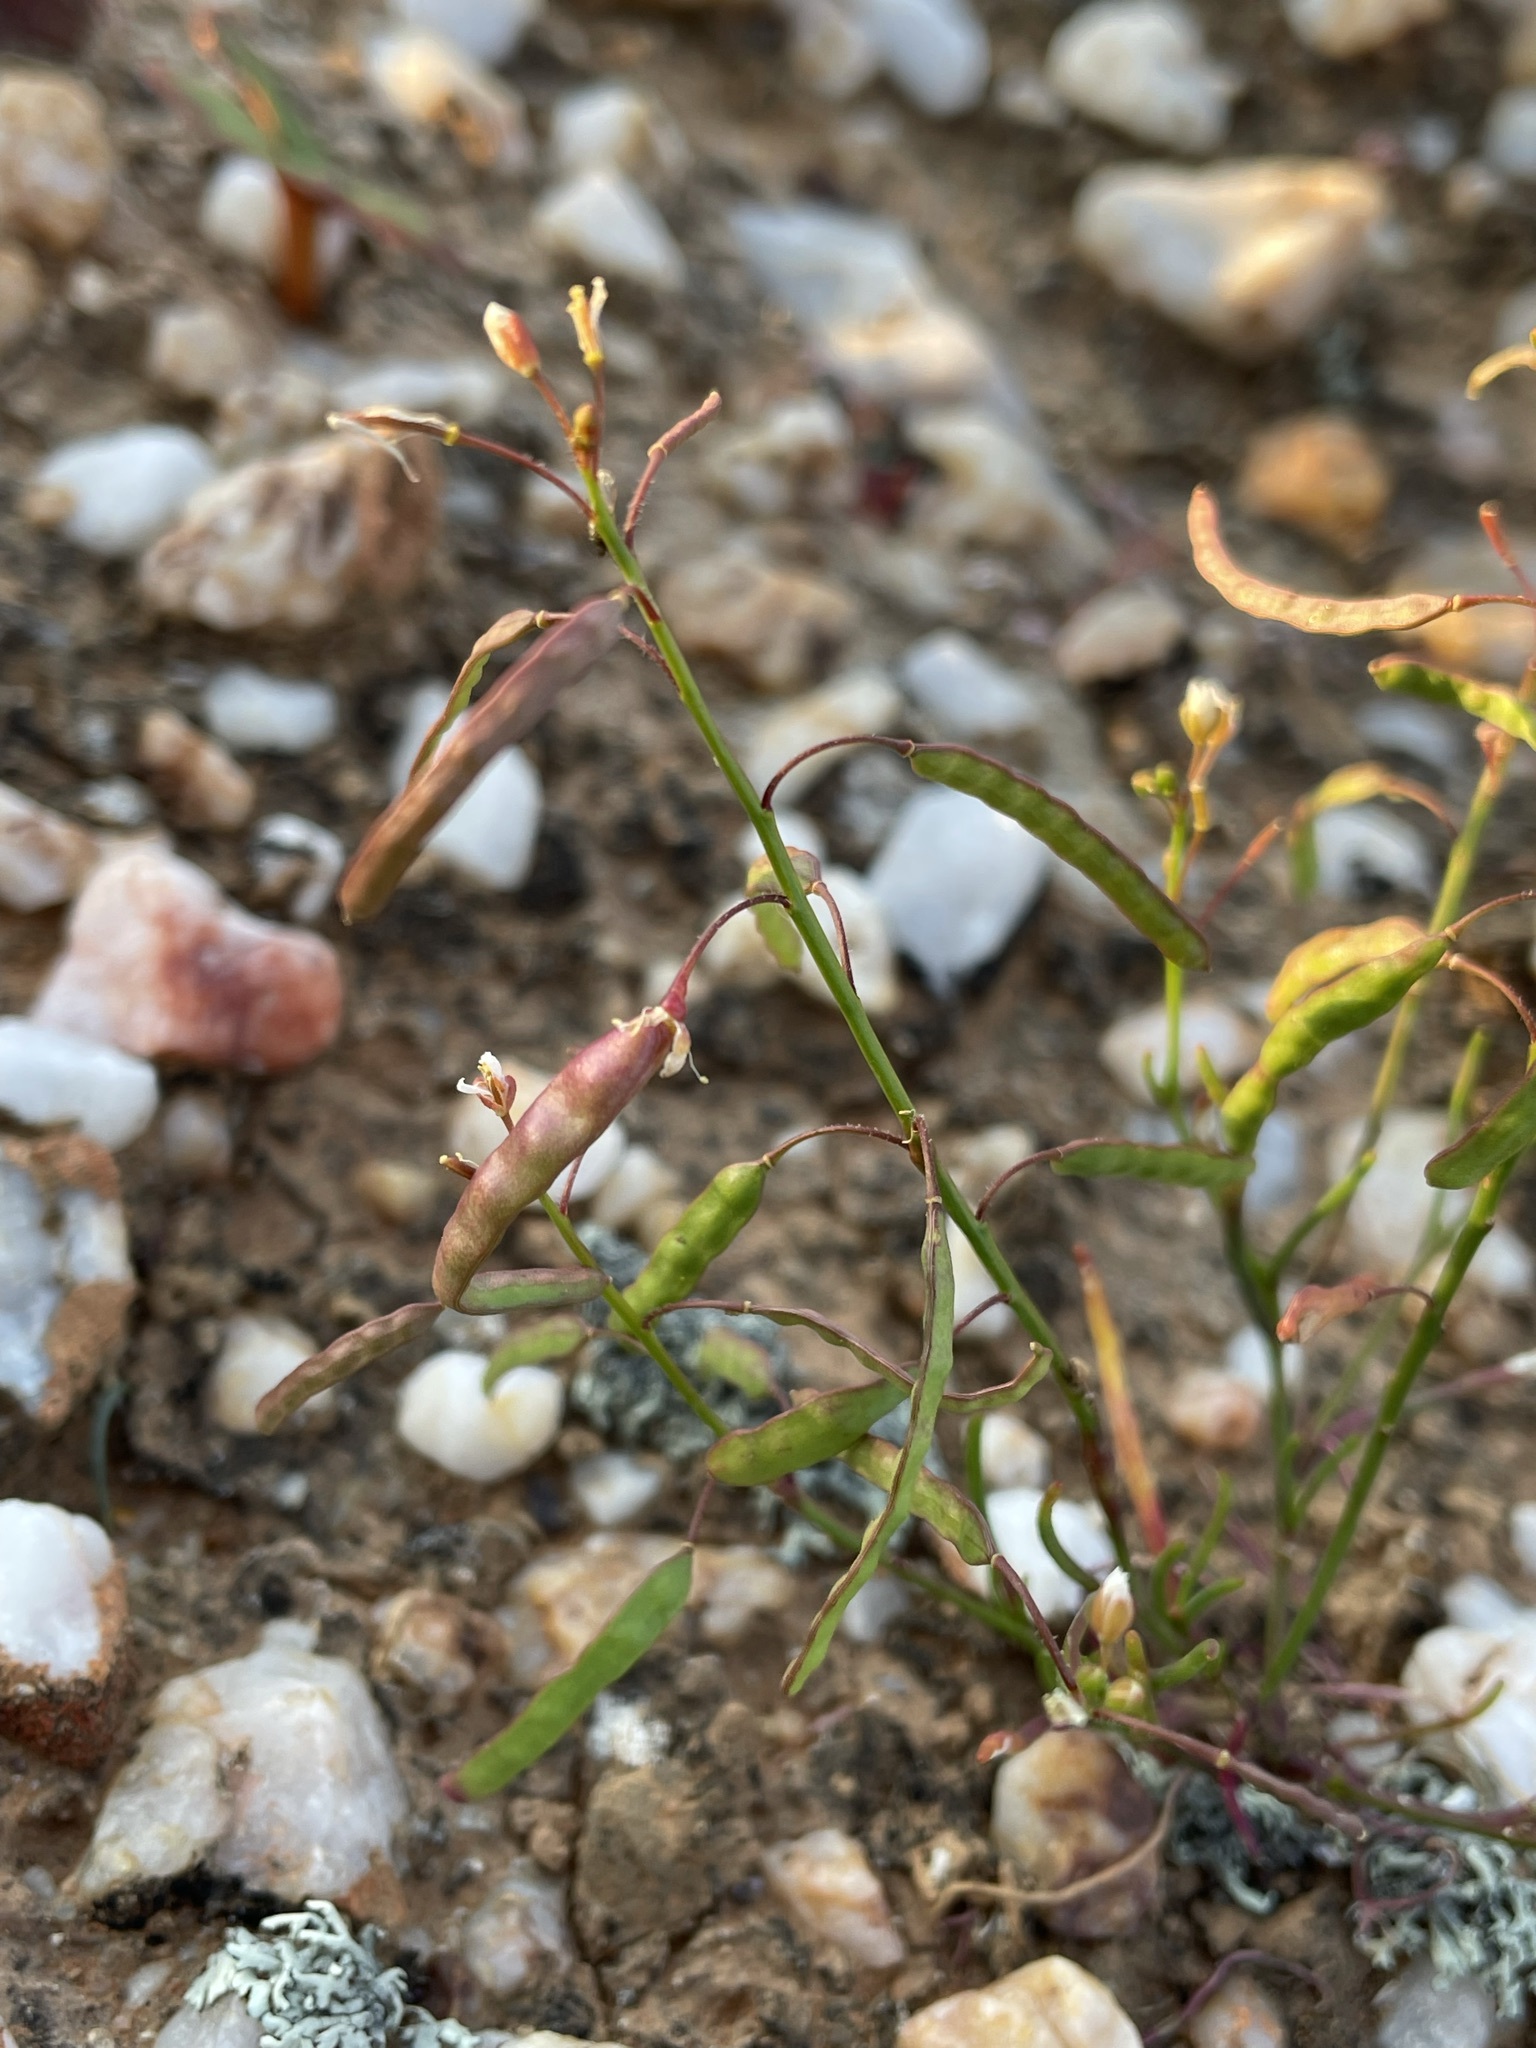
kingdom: Plantae
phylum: Tracheophyta
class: Magnoliopsida
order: Brassicales
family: Brassicaceae
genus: Heliophila
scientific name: Heliophila variabilis
